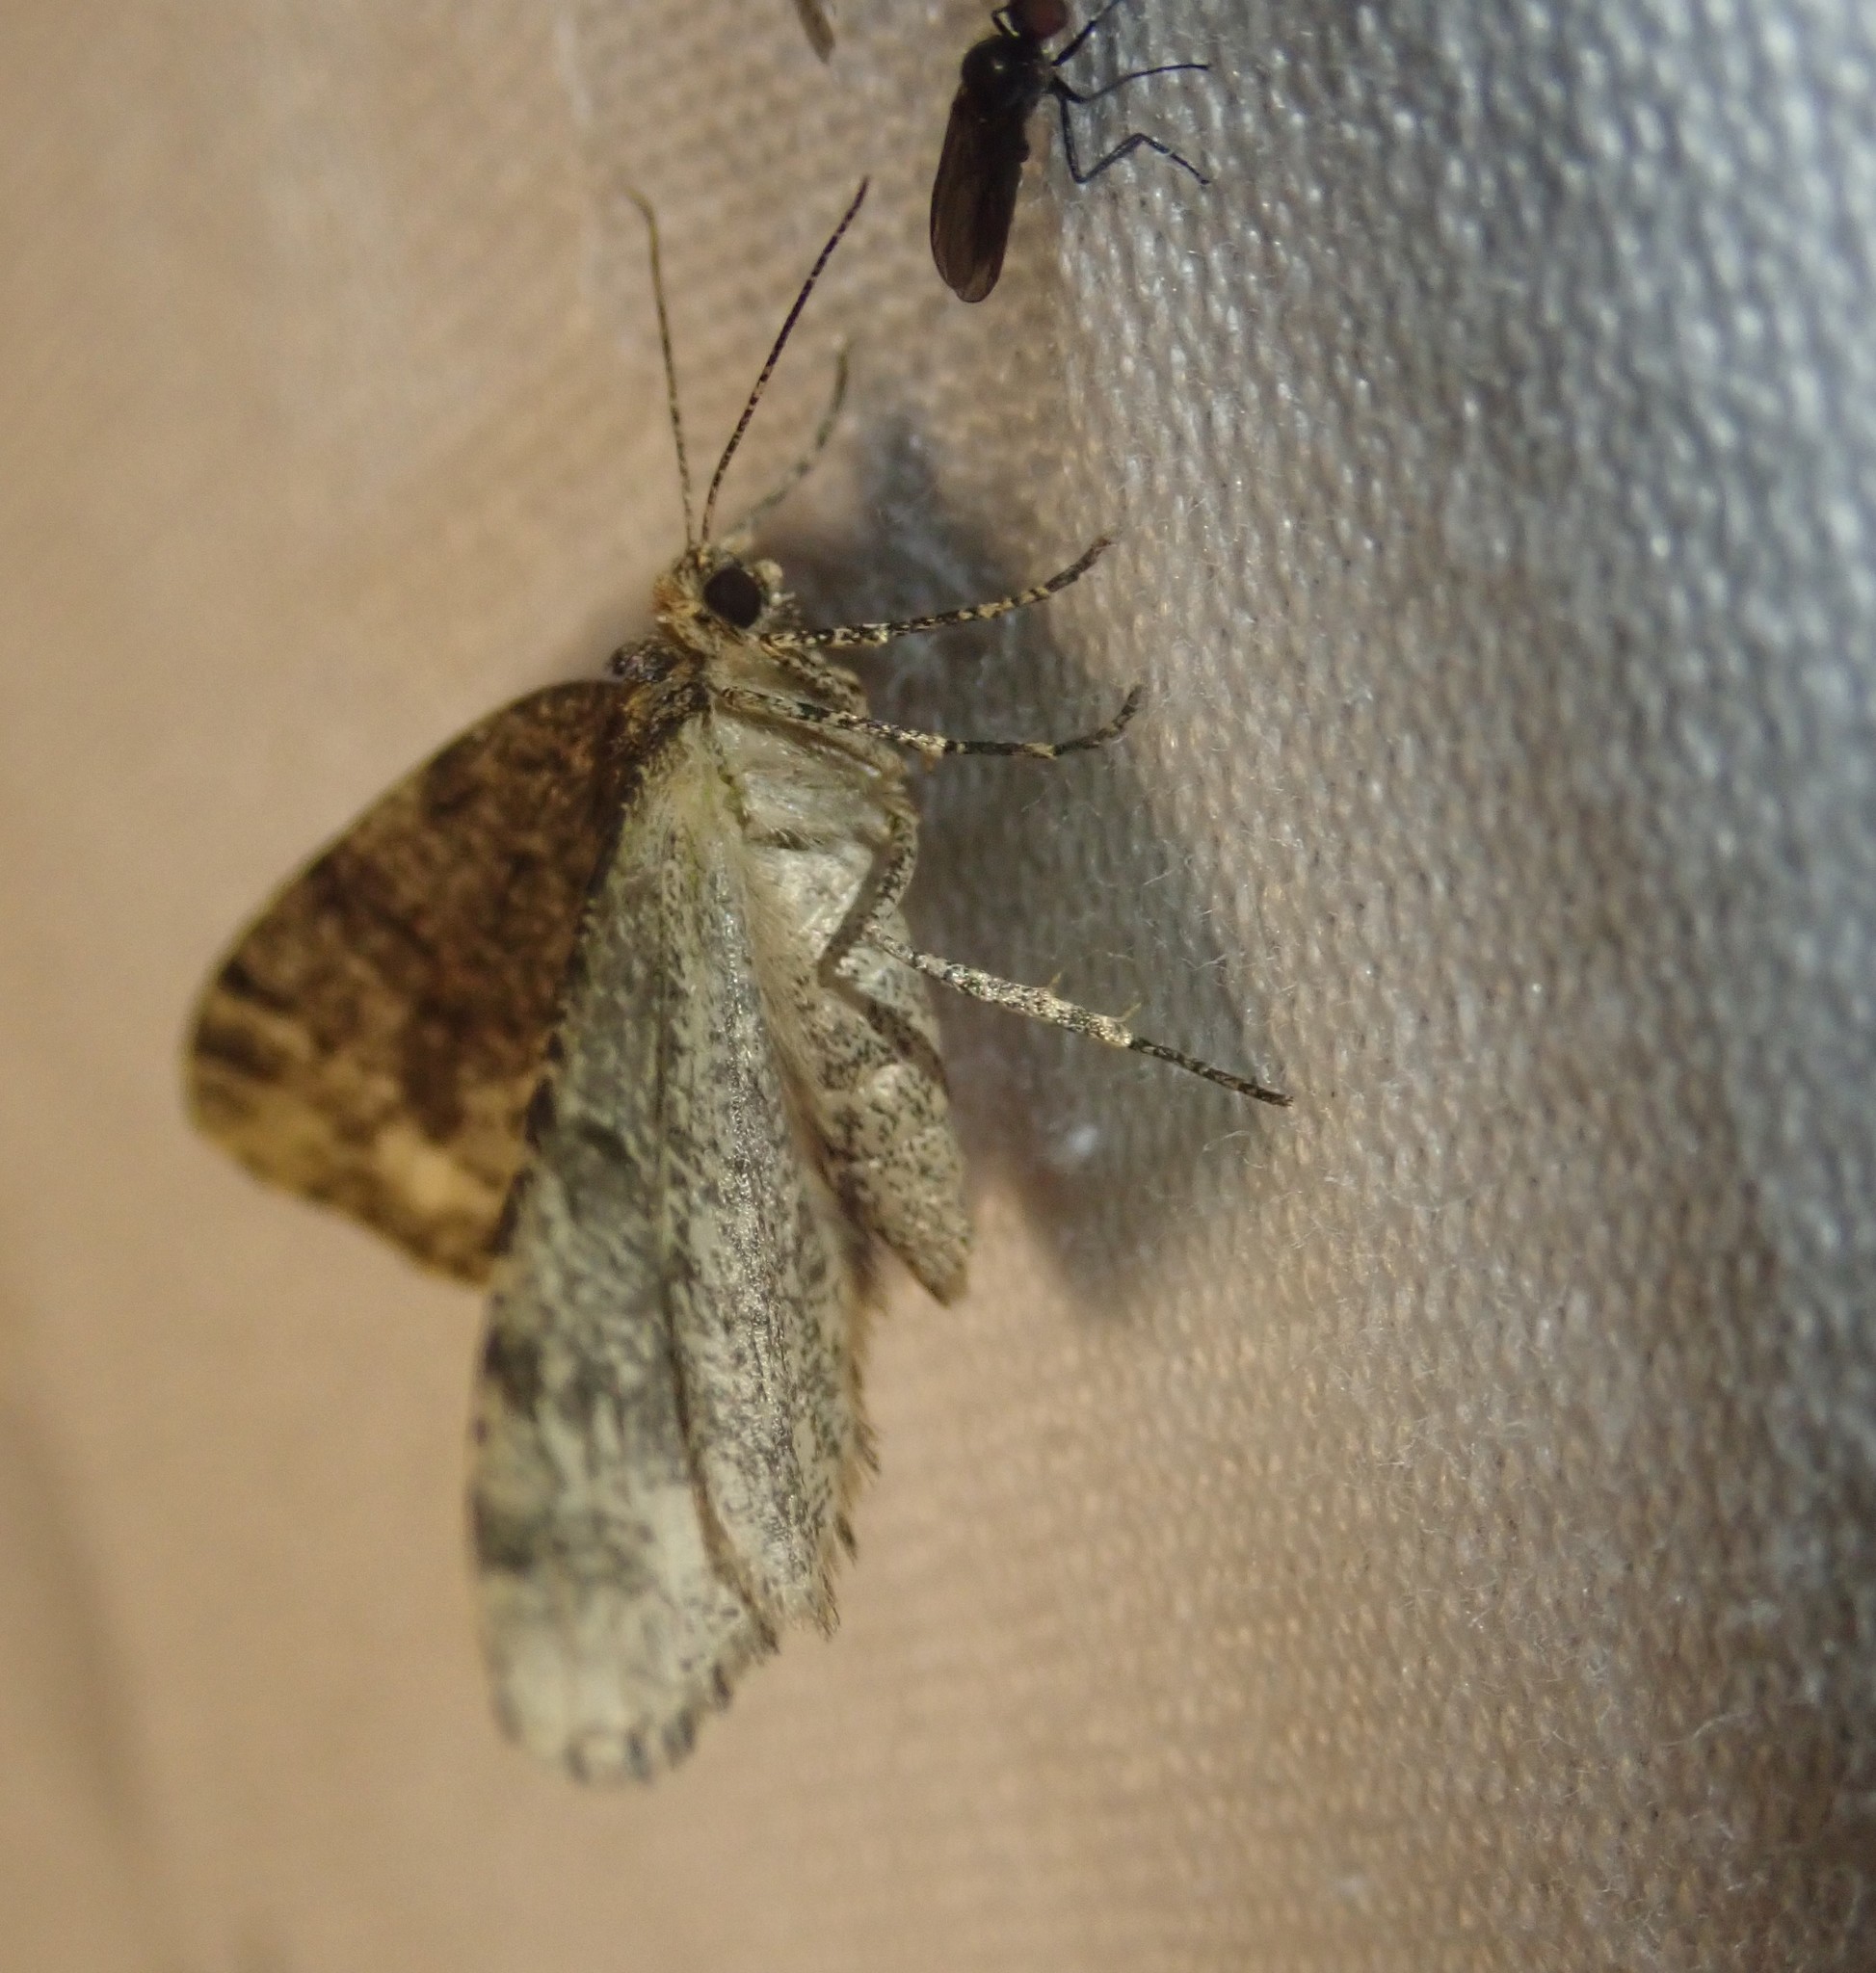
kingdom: Animalia
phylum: Arthropoda
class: Insecta
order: Lepidoptera
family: Geometridae
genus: Parectropis
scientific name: Parectropis similaria
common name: Brindled white-spot
